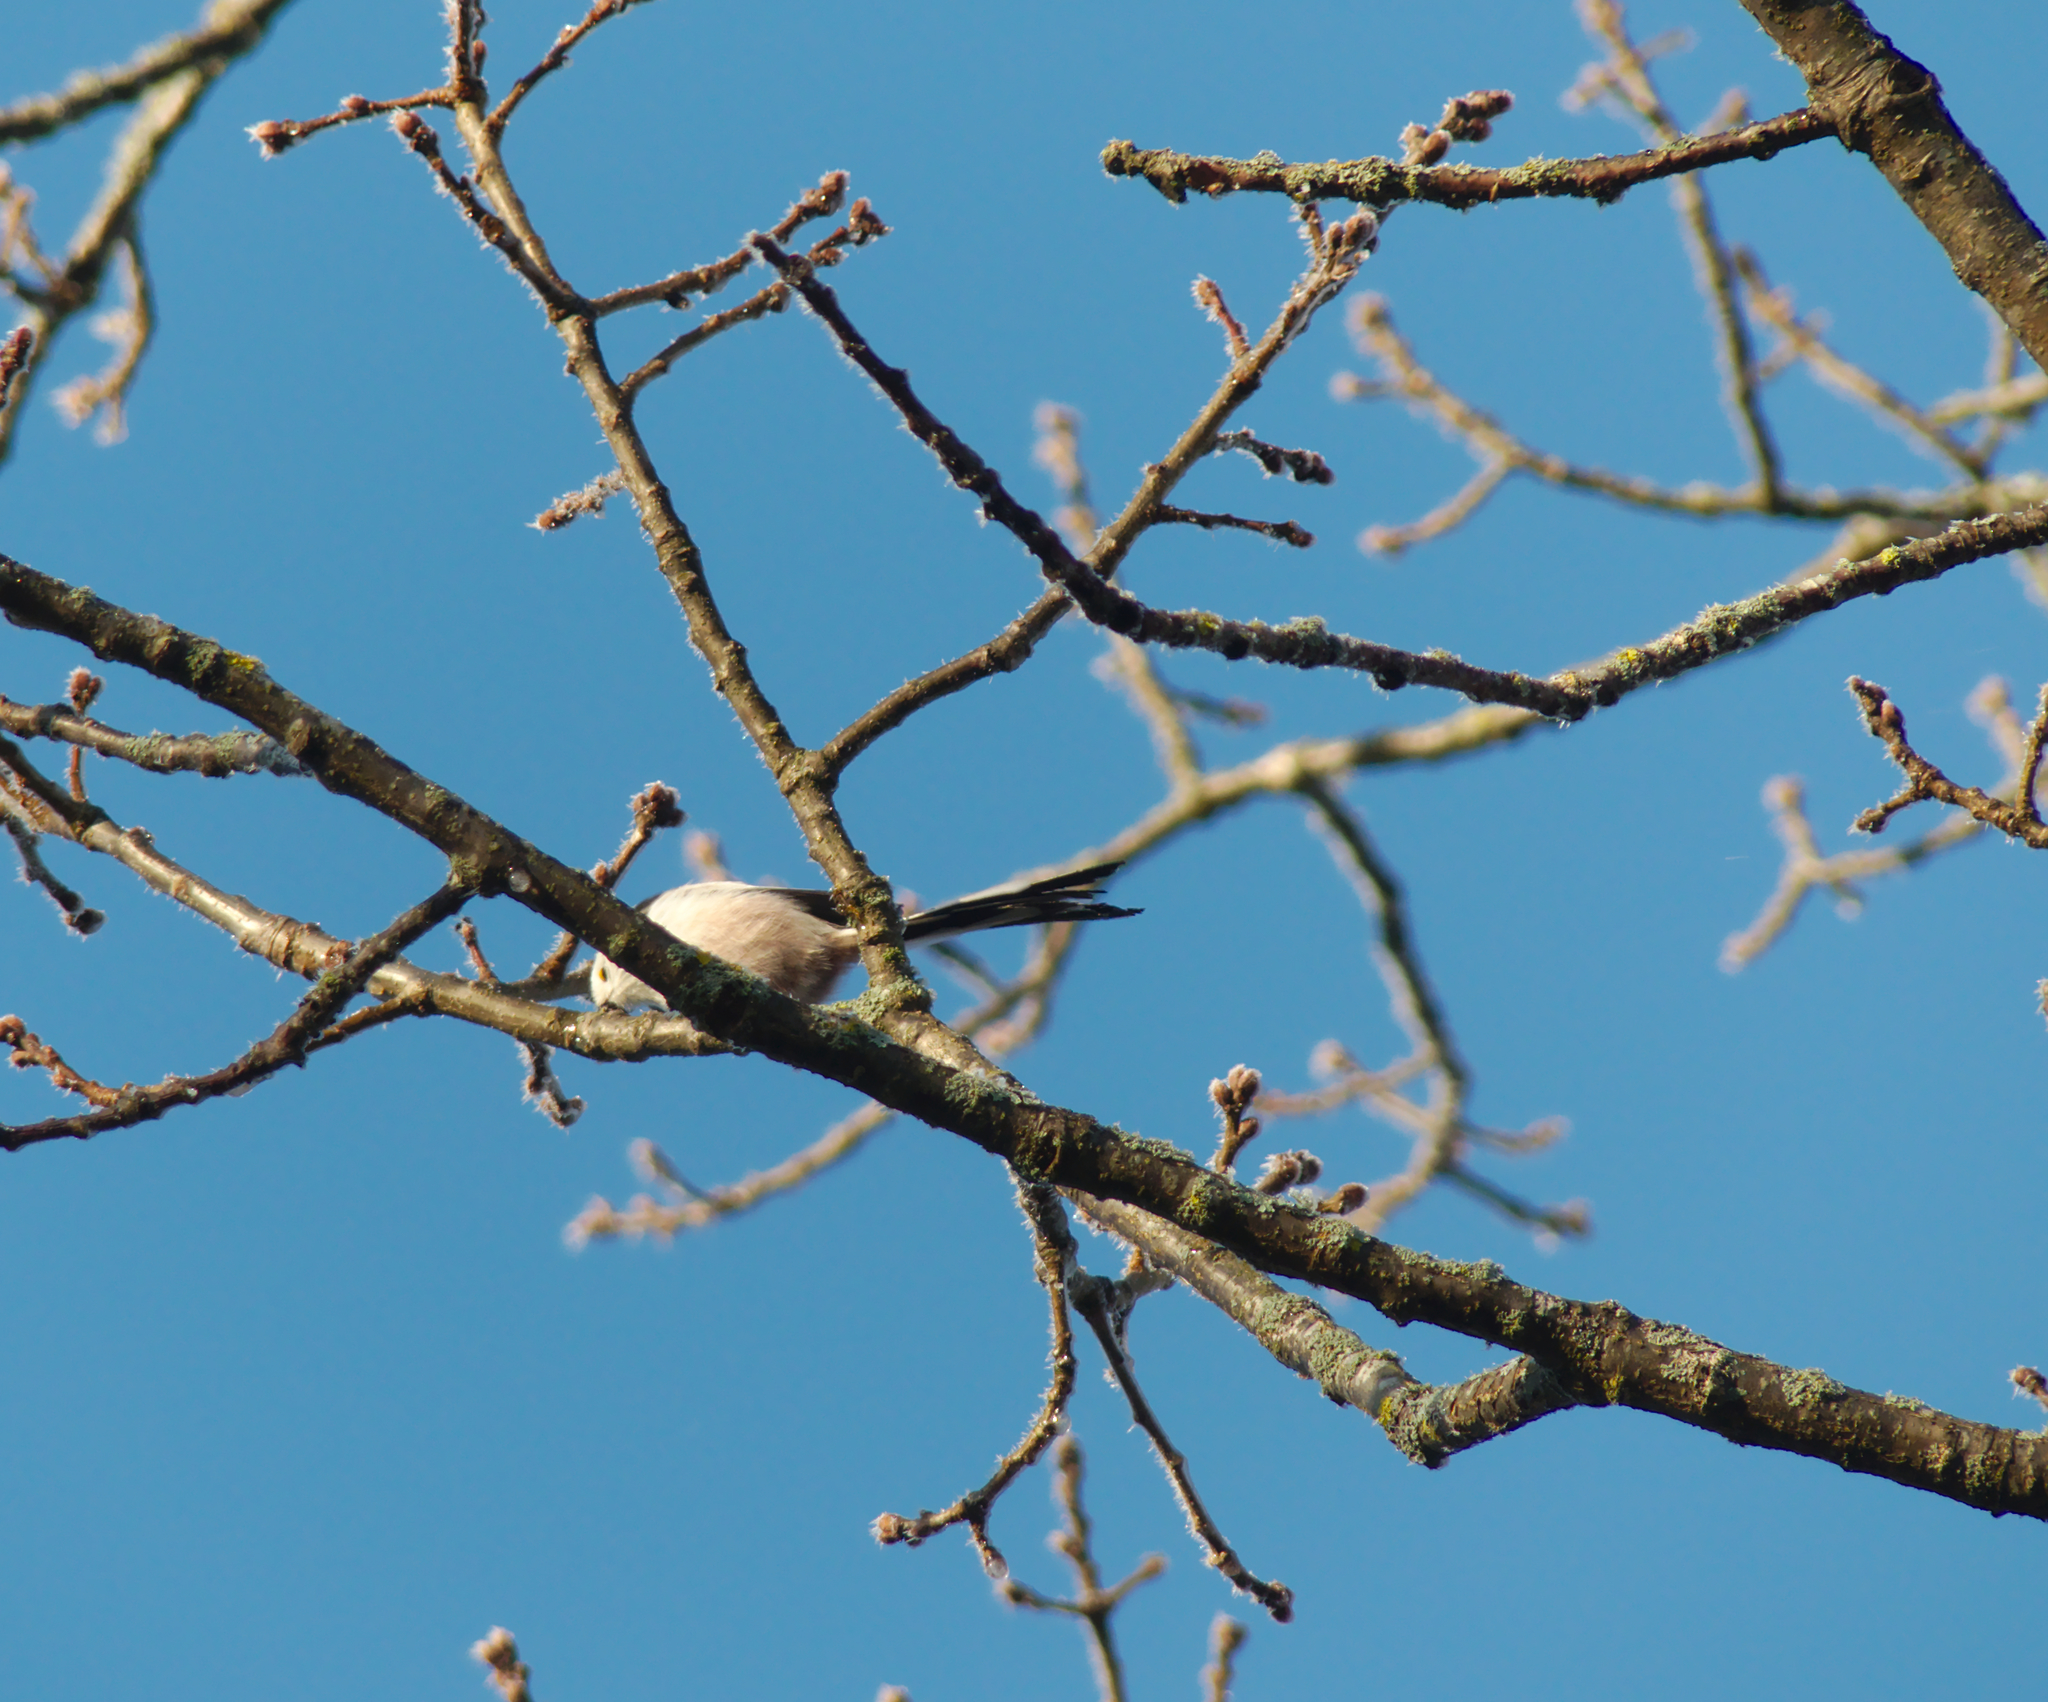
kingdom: Animalia
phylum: Chordata
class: Aves
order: Passeriformes
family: Aegithalidae
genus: Aegithalos
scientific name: Aegithalos caudatus
